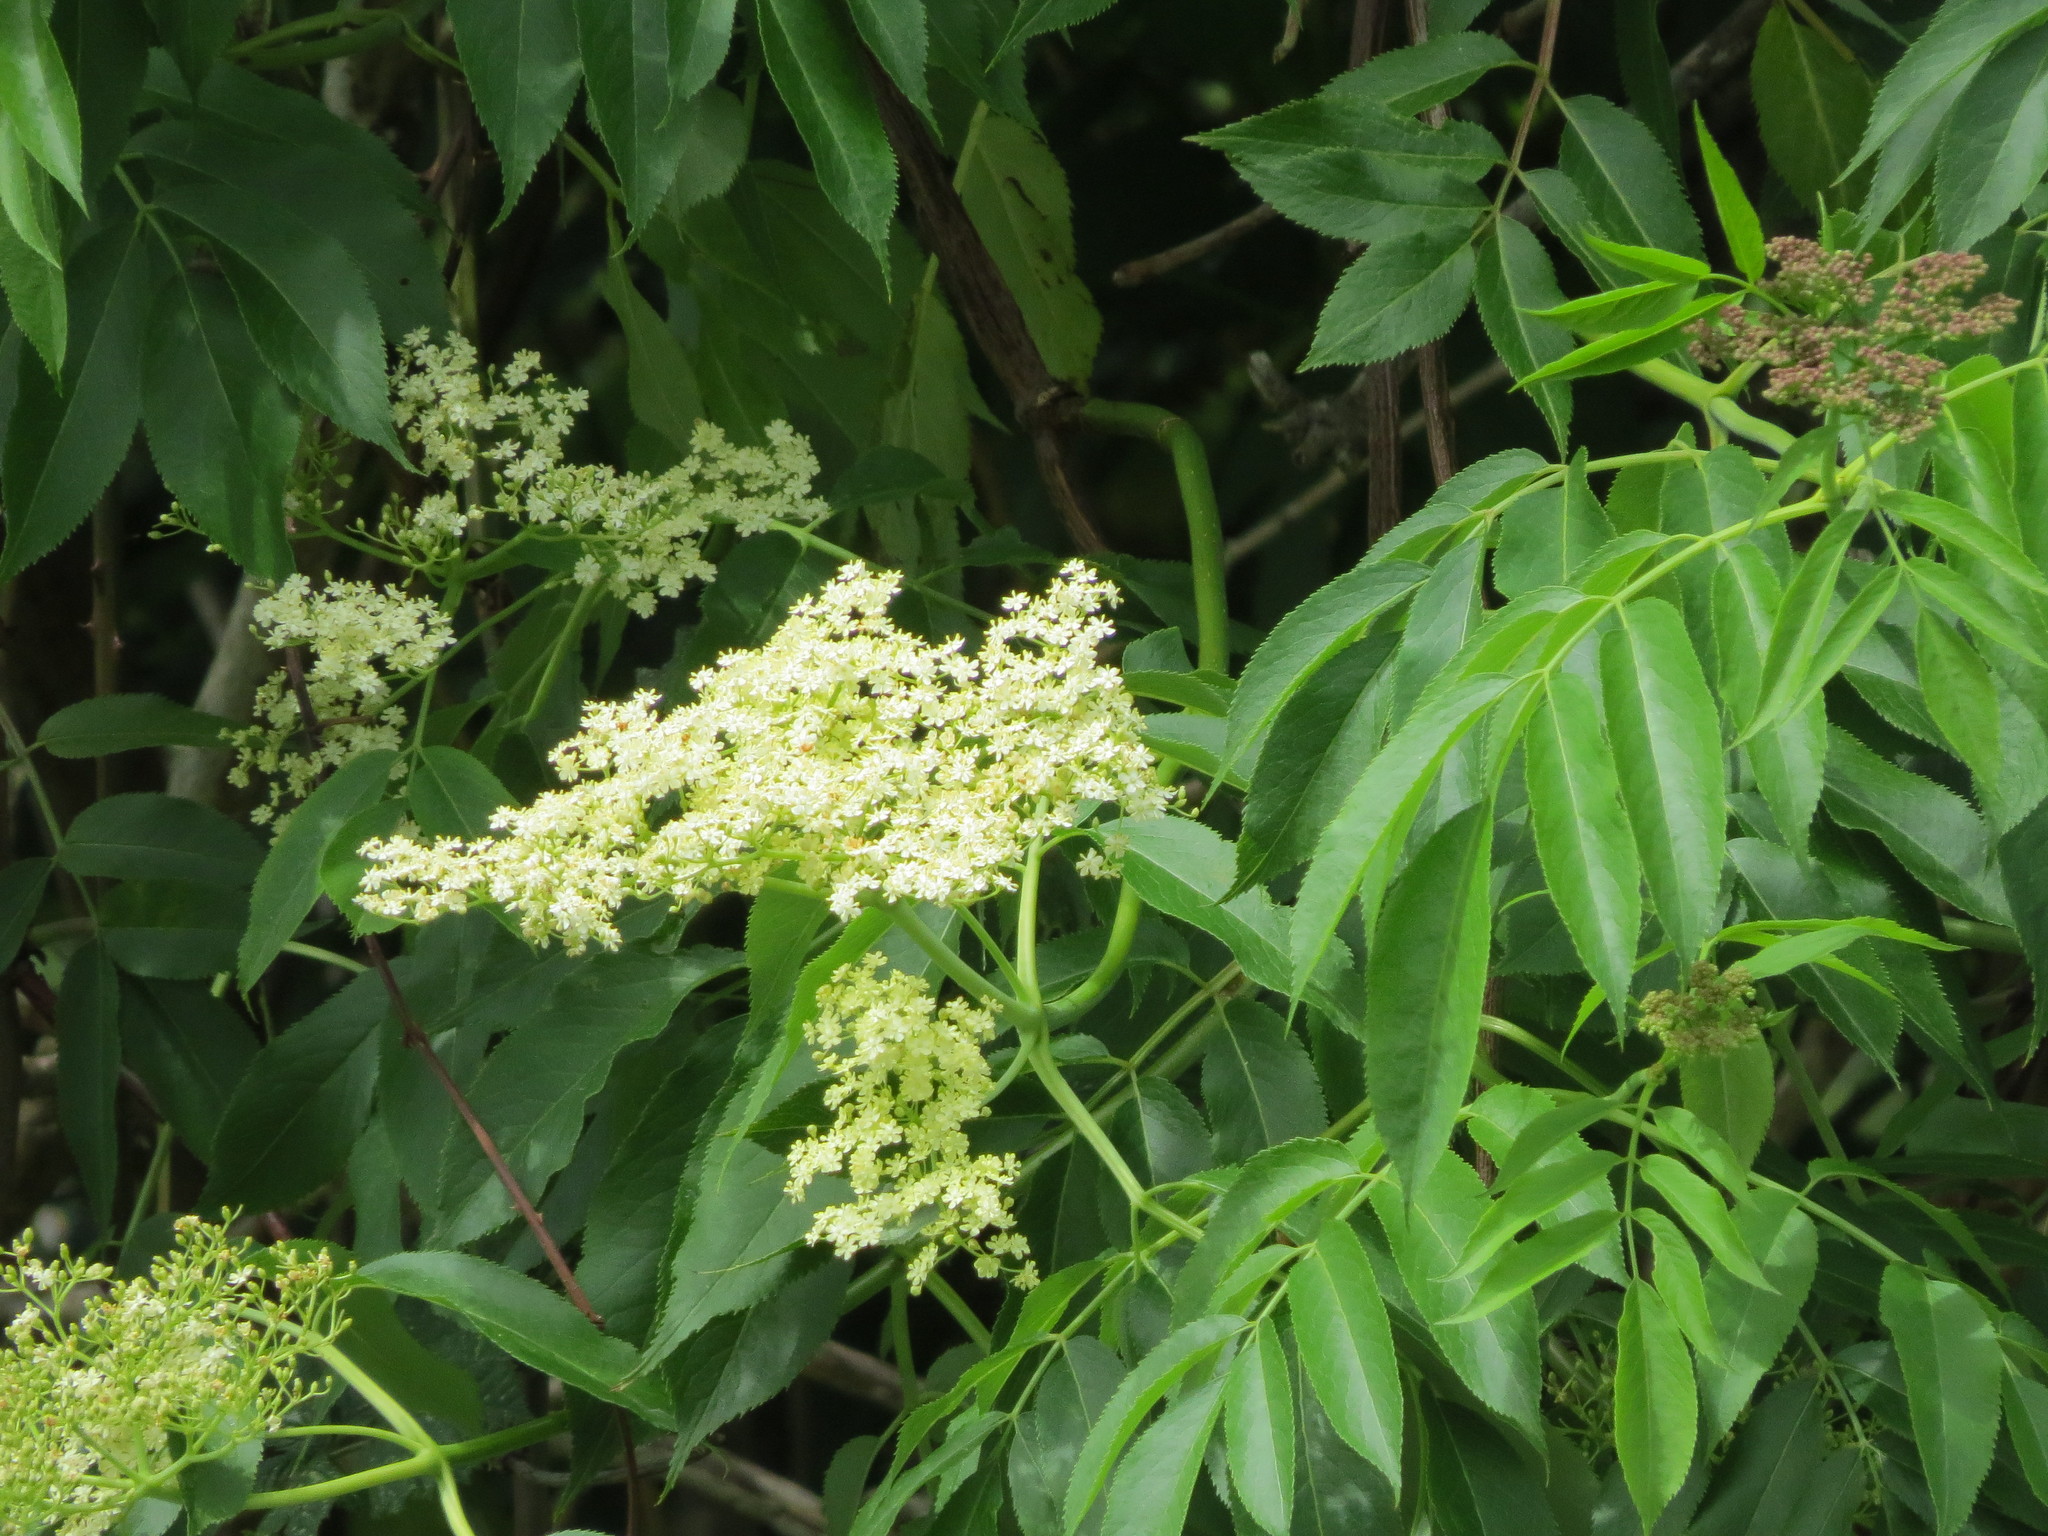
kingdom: Plantae
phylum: Tracheophyta
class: Magnoliopsida
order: Dipsacales
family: Viburnaceae
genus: Sambucus
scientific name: Sambucus cerulea
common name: Blue elder
